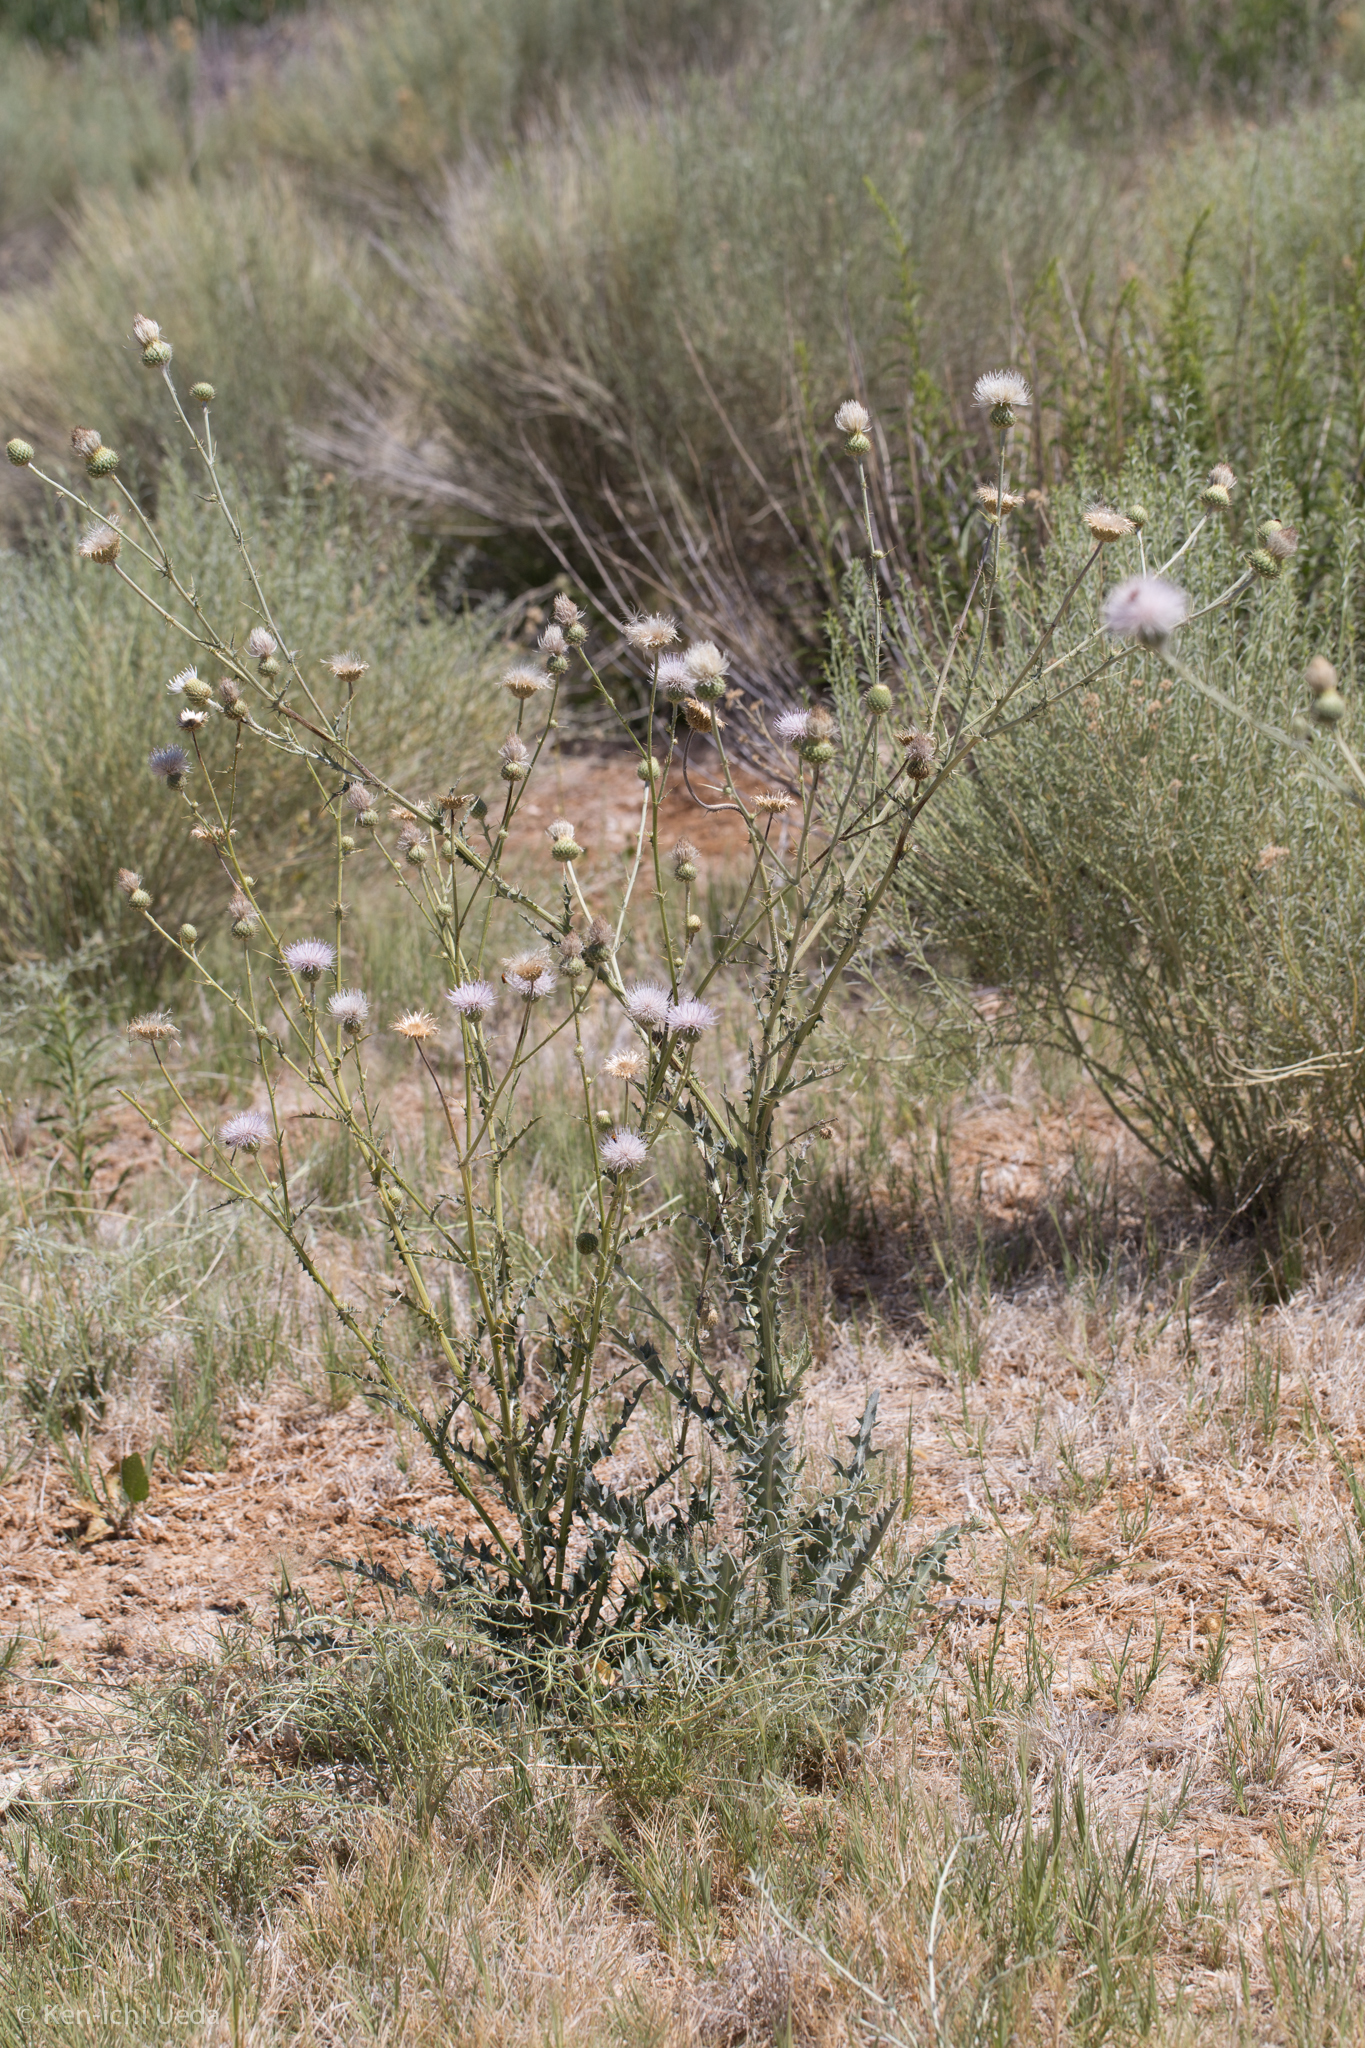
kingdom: Plantae
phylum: Tracheophyta
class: Magnoliopsida
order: Asterales
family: Asteraceae
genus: Cirsium
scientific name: Cirsium mohavense
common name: Mojave thistle
